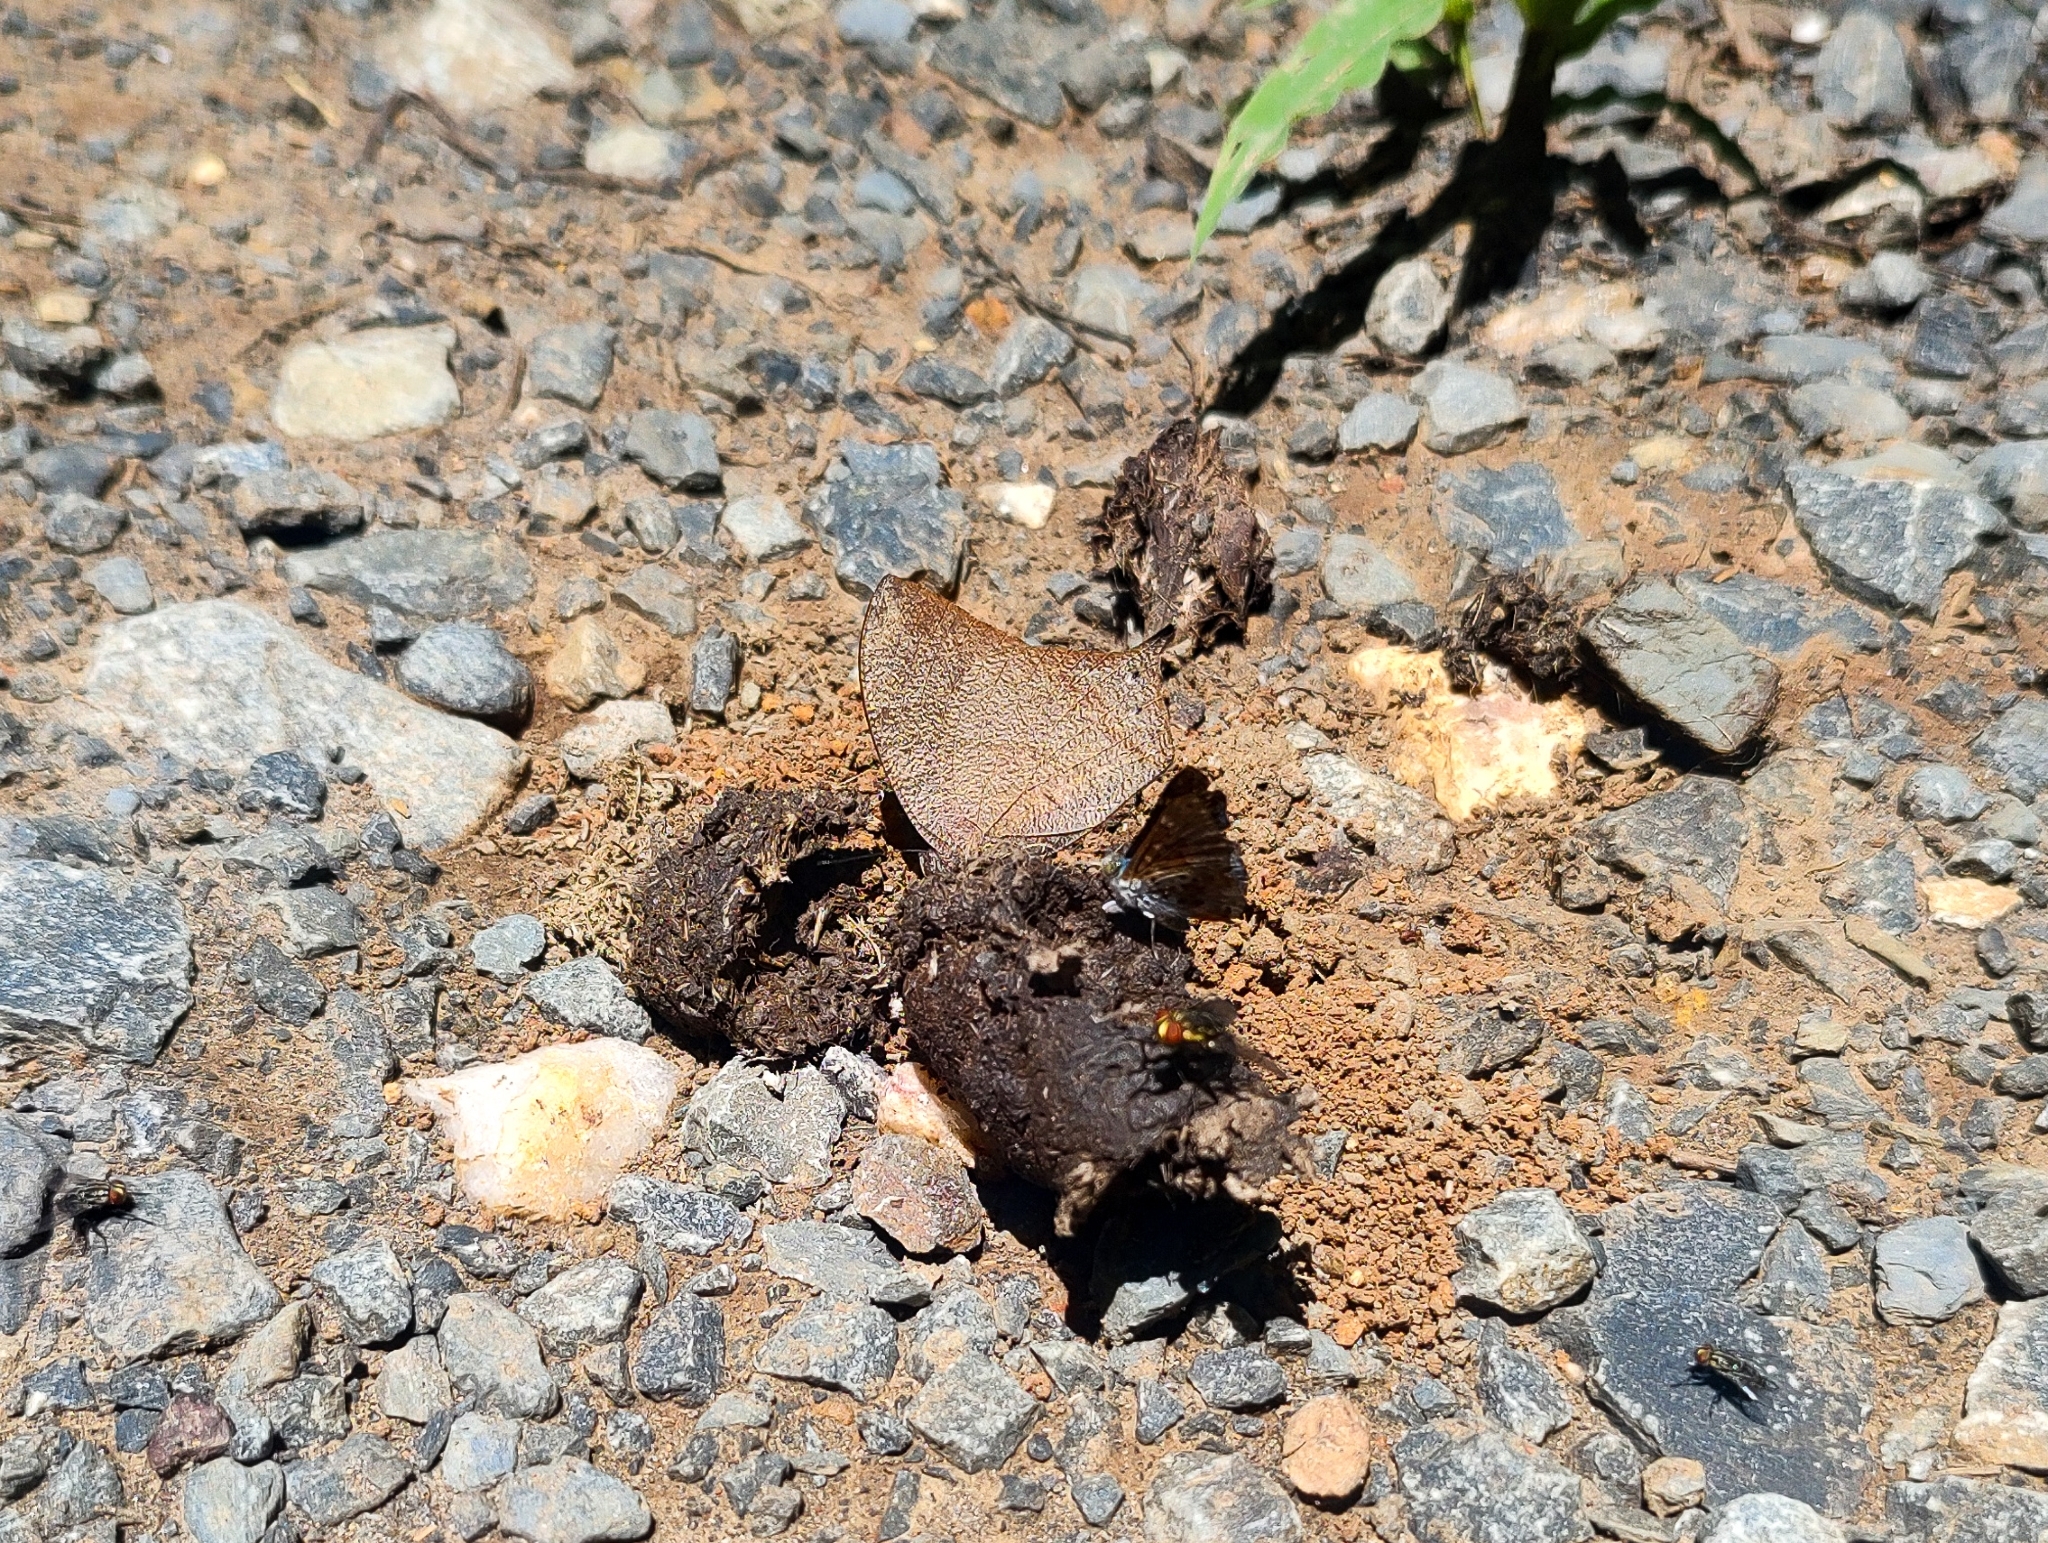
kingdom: Animalia
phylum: Arthropoda
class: Insecta
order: Lepidoptera
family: Nymphalidae
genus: Fountainea
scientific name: Fountainea
